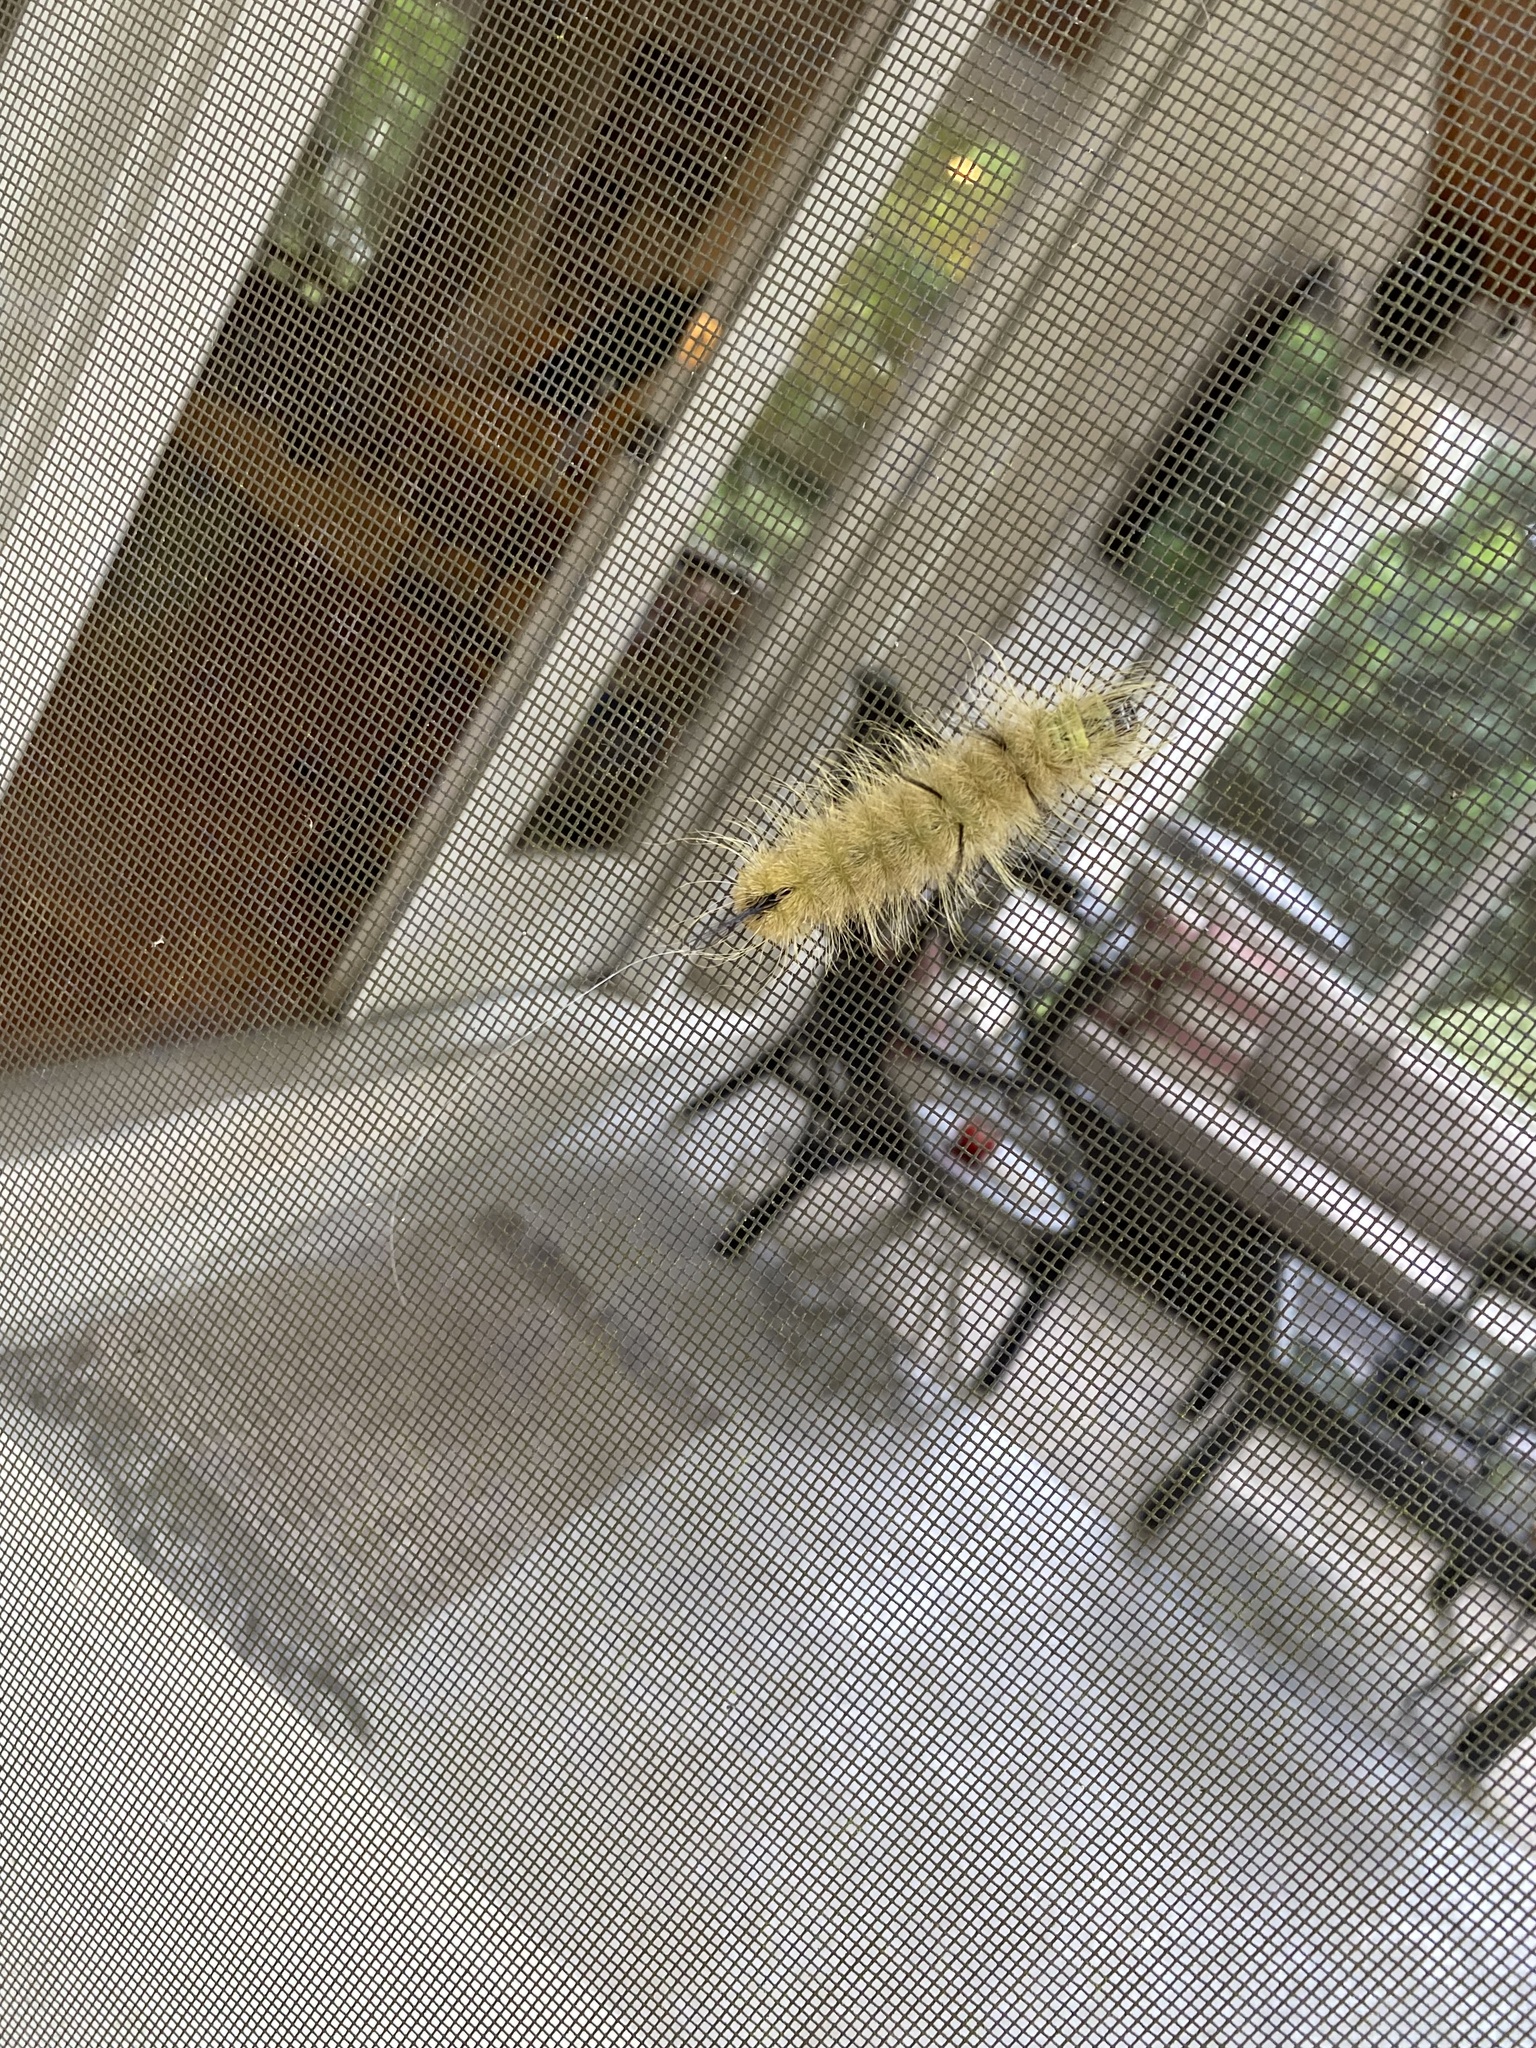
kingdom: Animalia
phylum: Arthropoda
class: Insecta
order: Lepidoptera
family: Noctuidae
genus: Acronicta
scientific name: Acronicta americana
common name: American dagger
